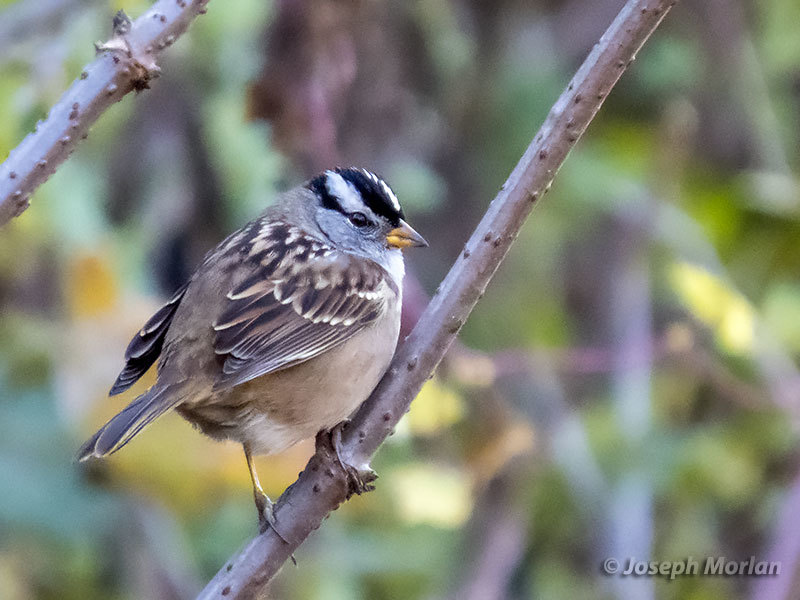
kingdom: Animalia
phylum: Chordata
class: Aves
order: Passeriformes
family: Passerellidae
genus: Zonotrichia
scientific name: Zonotrichia leucophrys
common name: White-crowned sparrow
